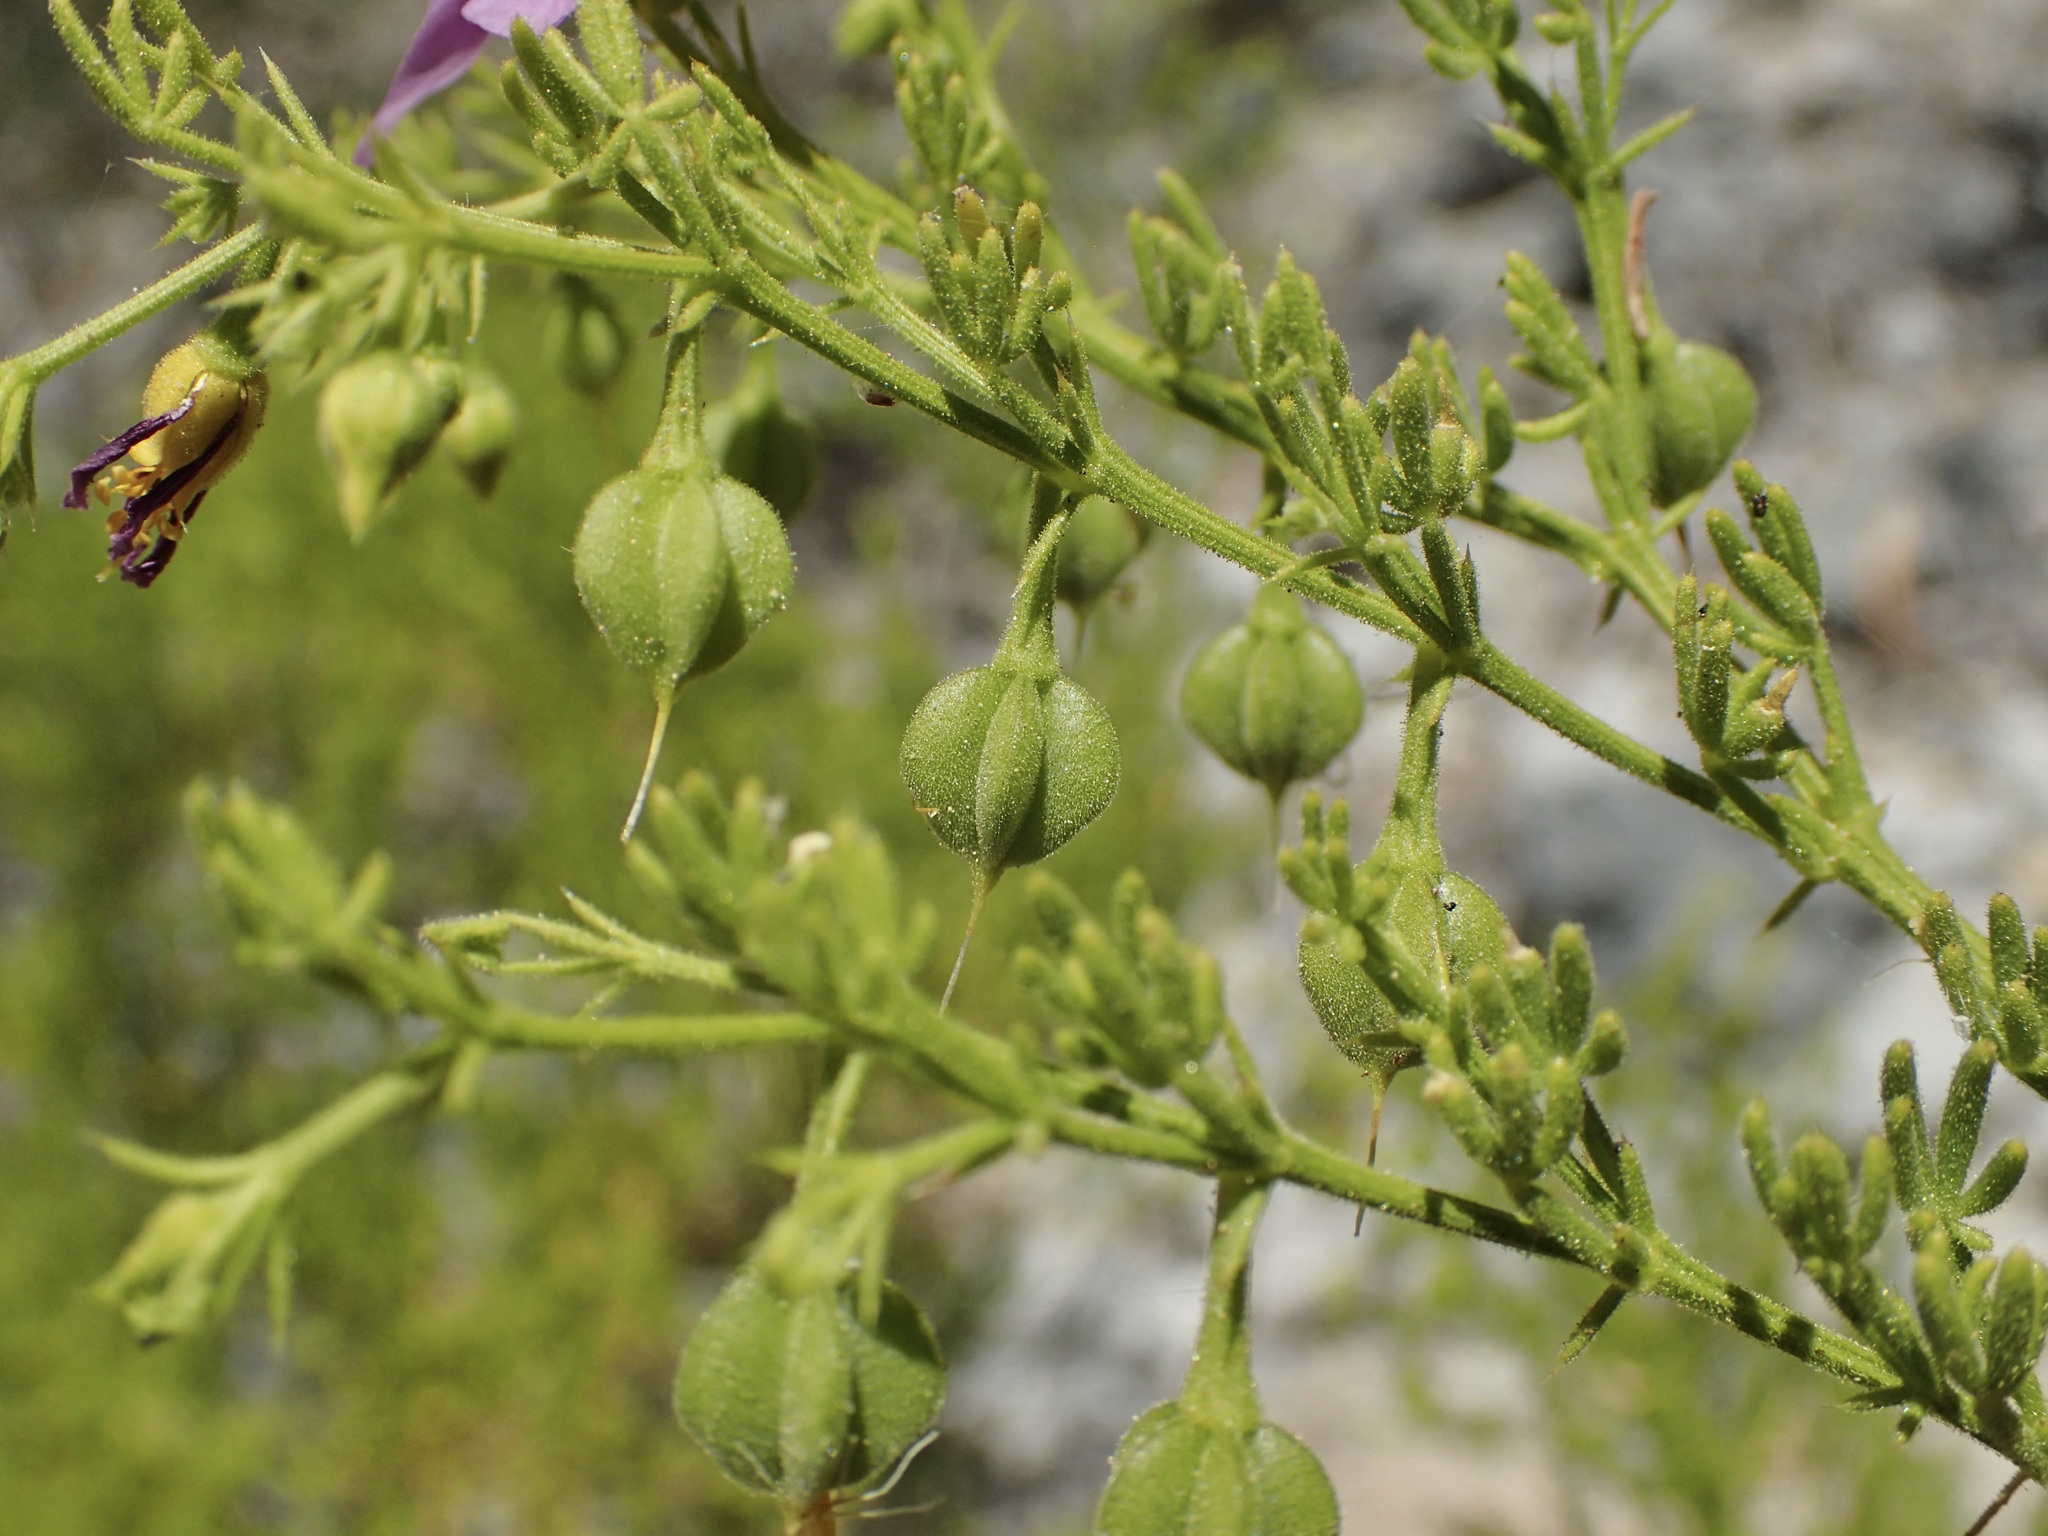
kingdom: Plantae
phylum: Tracheophyta
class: Magnoliopsida
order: Zygophyllales
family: Zygophyllaceae
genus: Fagonia
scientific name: Fagonia palmeri
